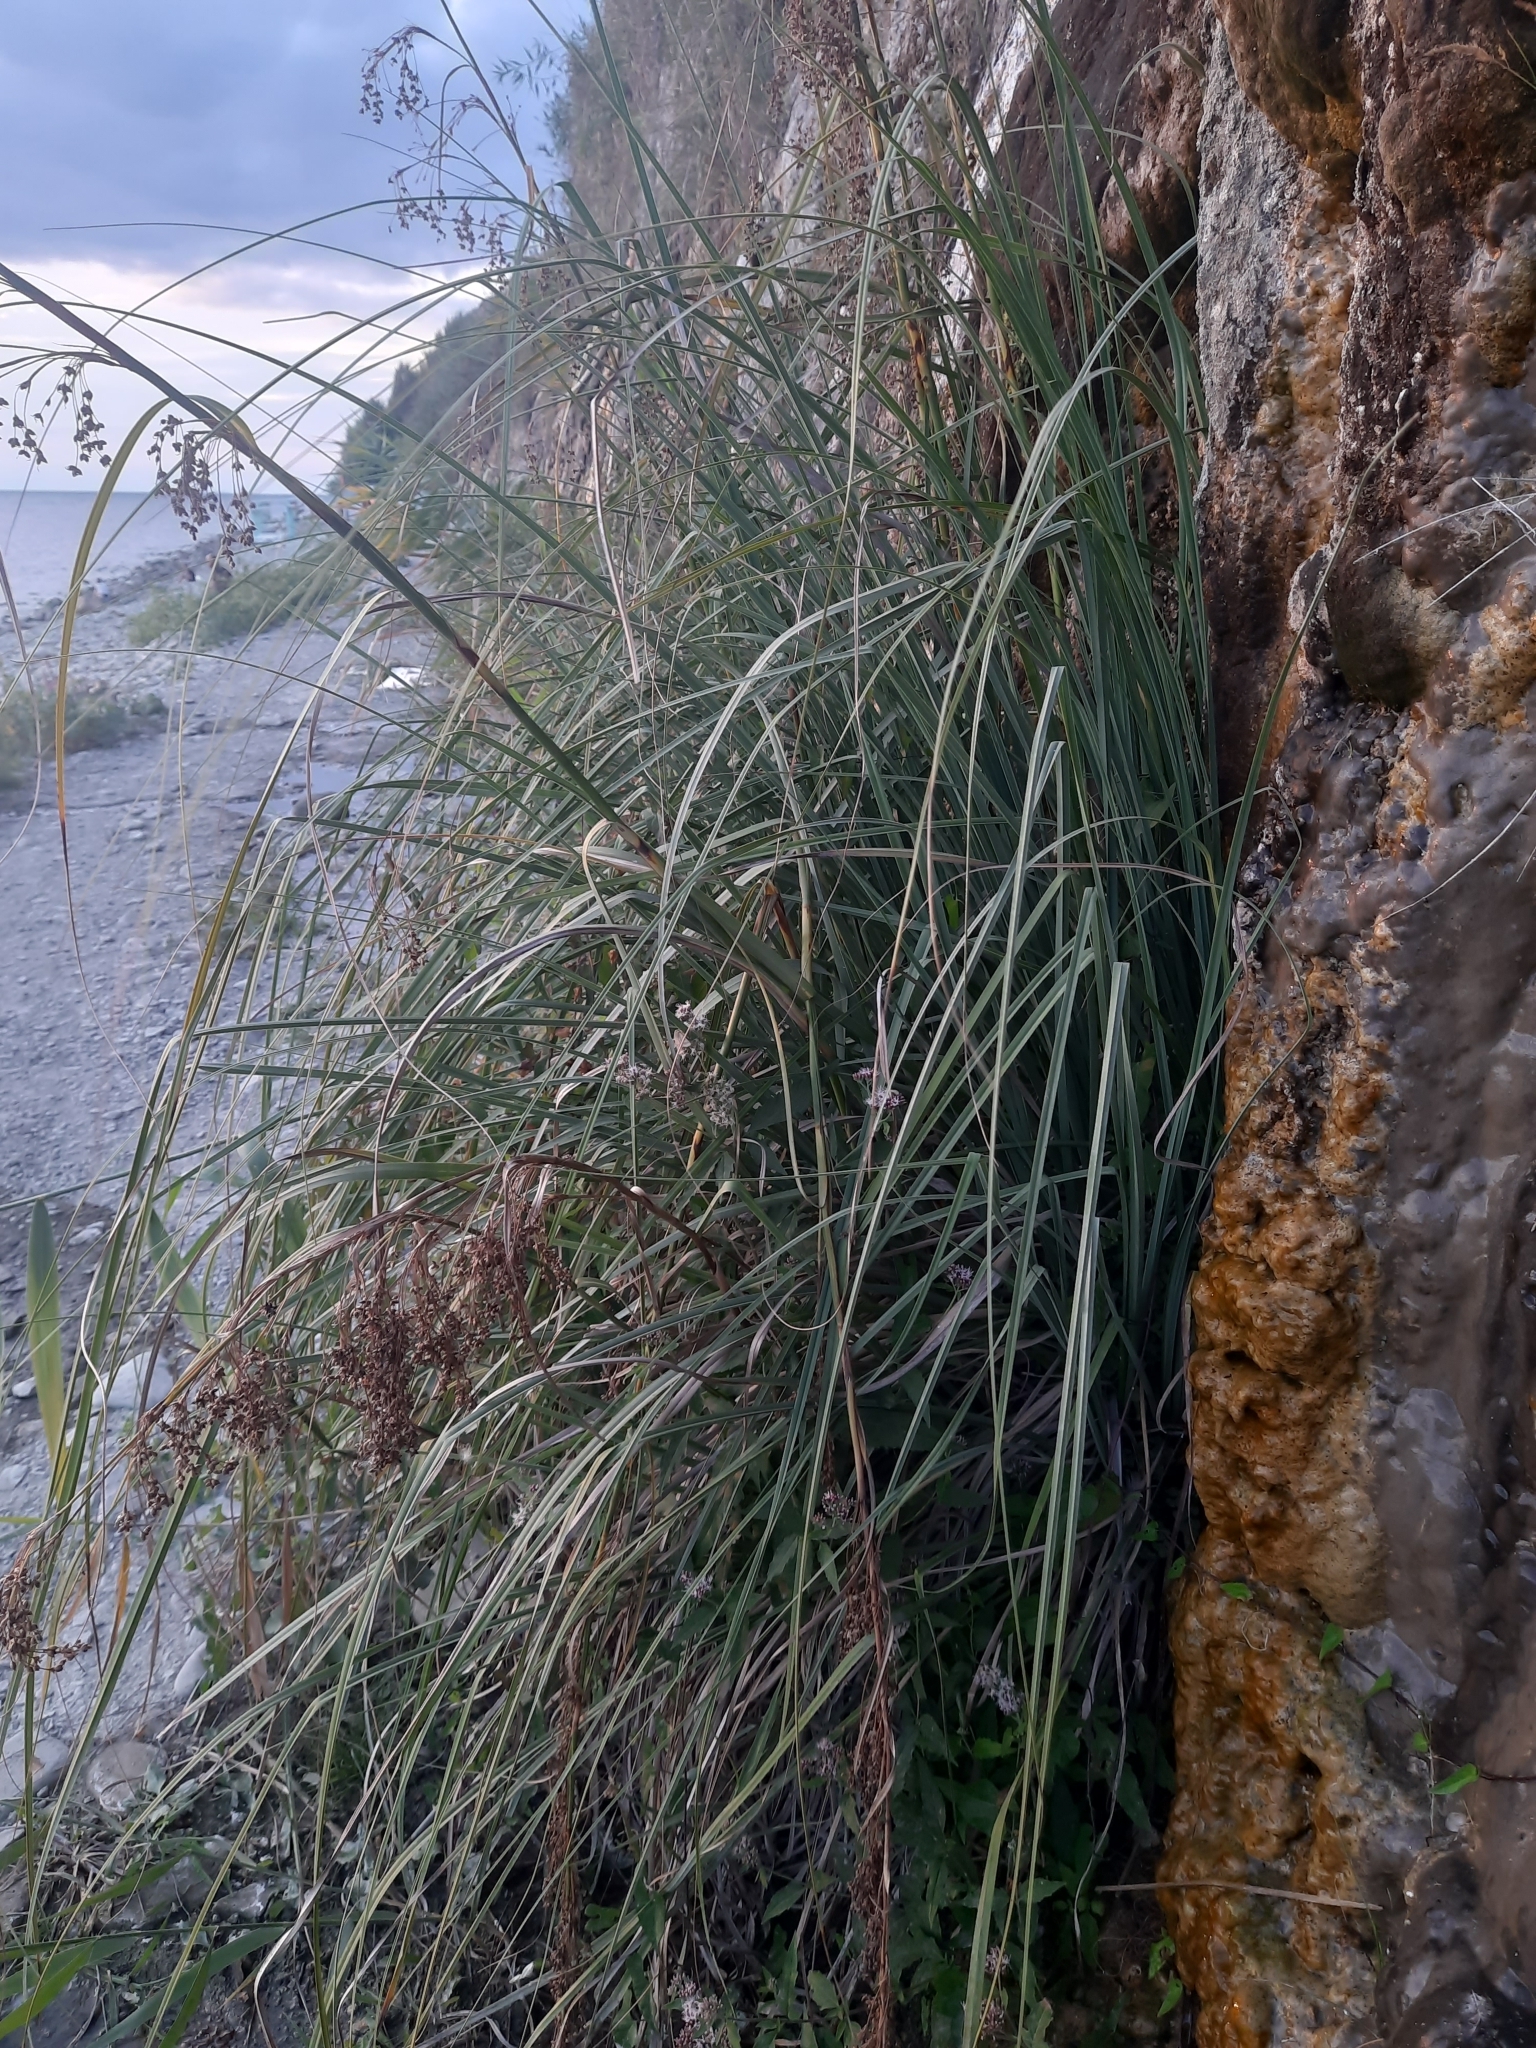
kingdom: Plantae
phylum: Tracheophyta
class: Liliopsida
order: Poales
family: Cyperaceae
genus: Cladium
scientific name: Cladium mariscus
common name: Great fen-sedge
